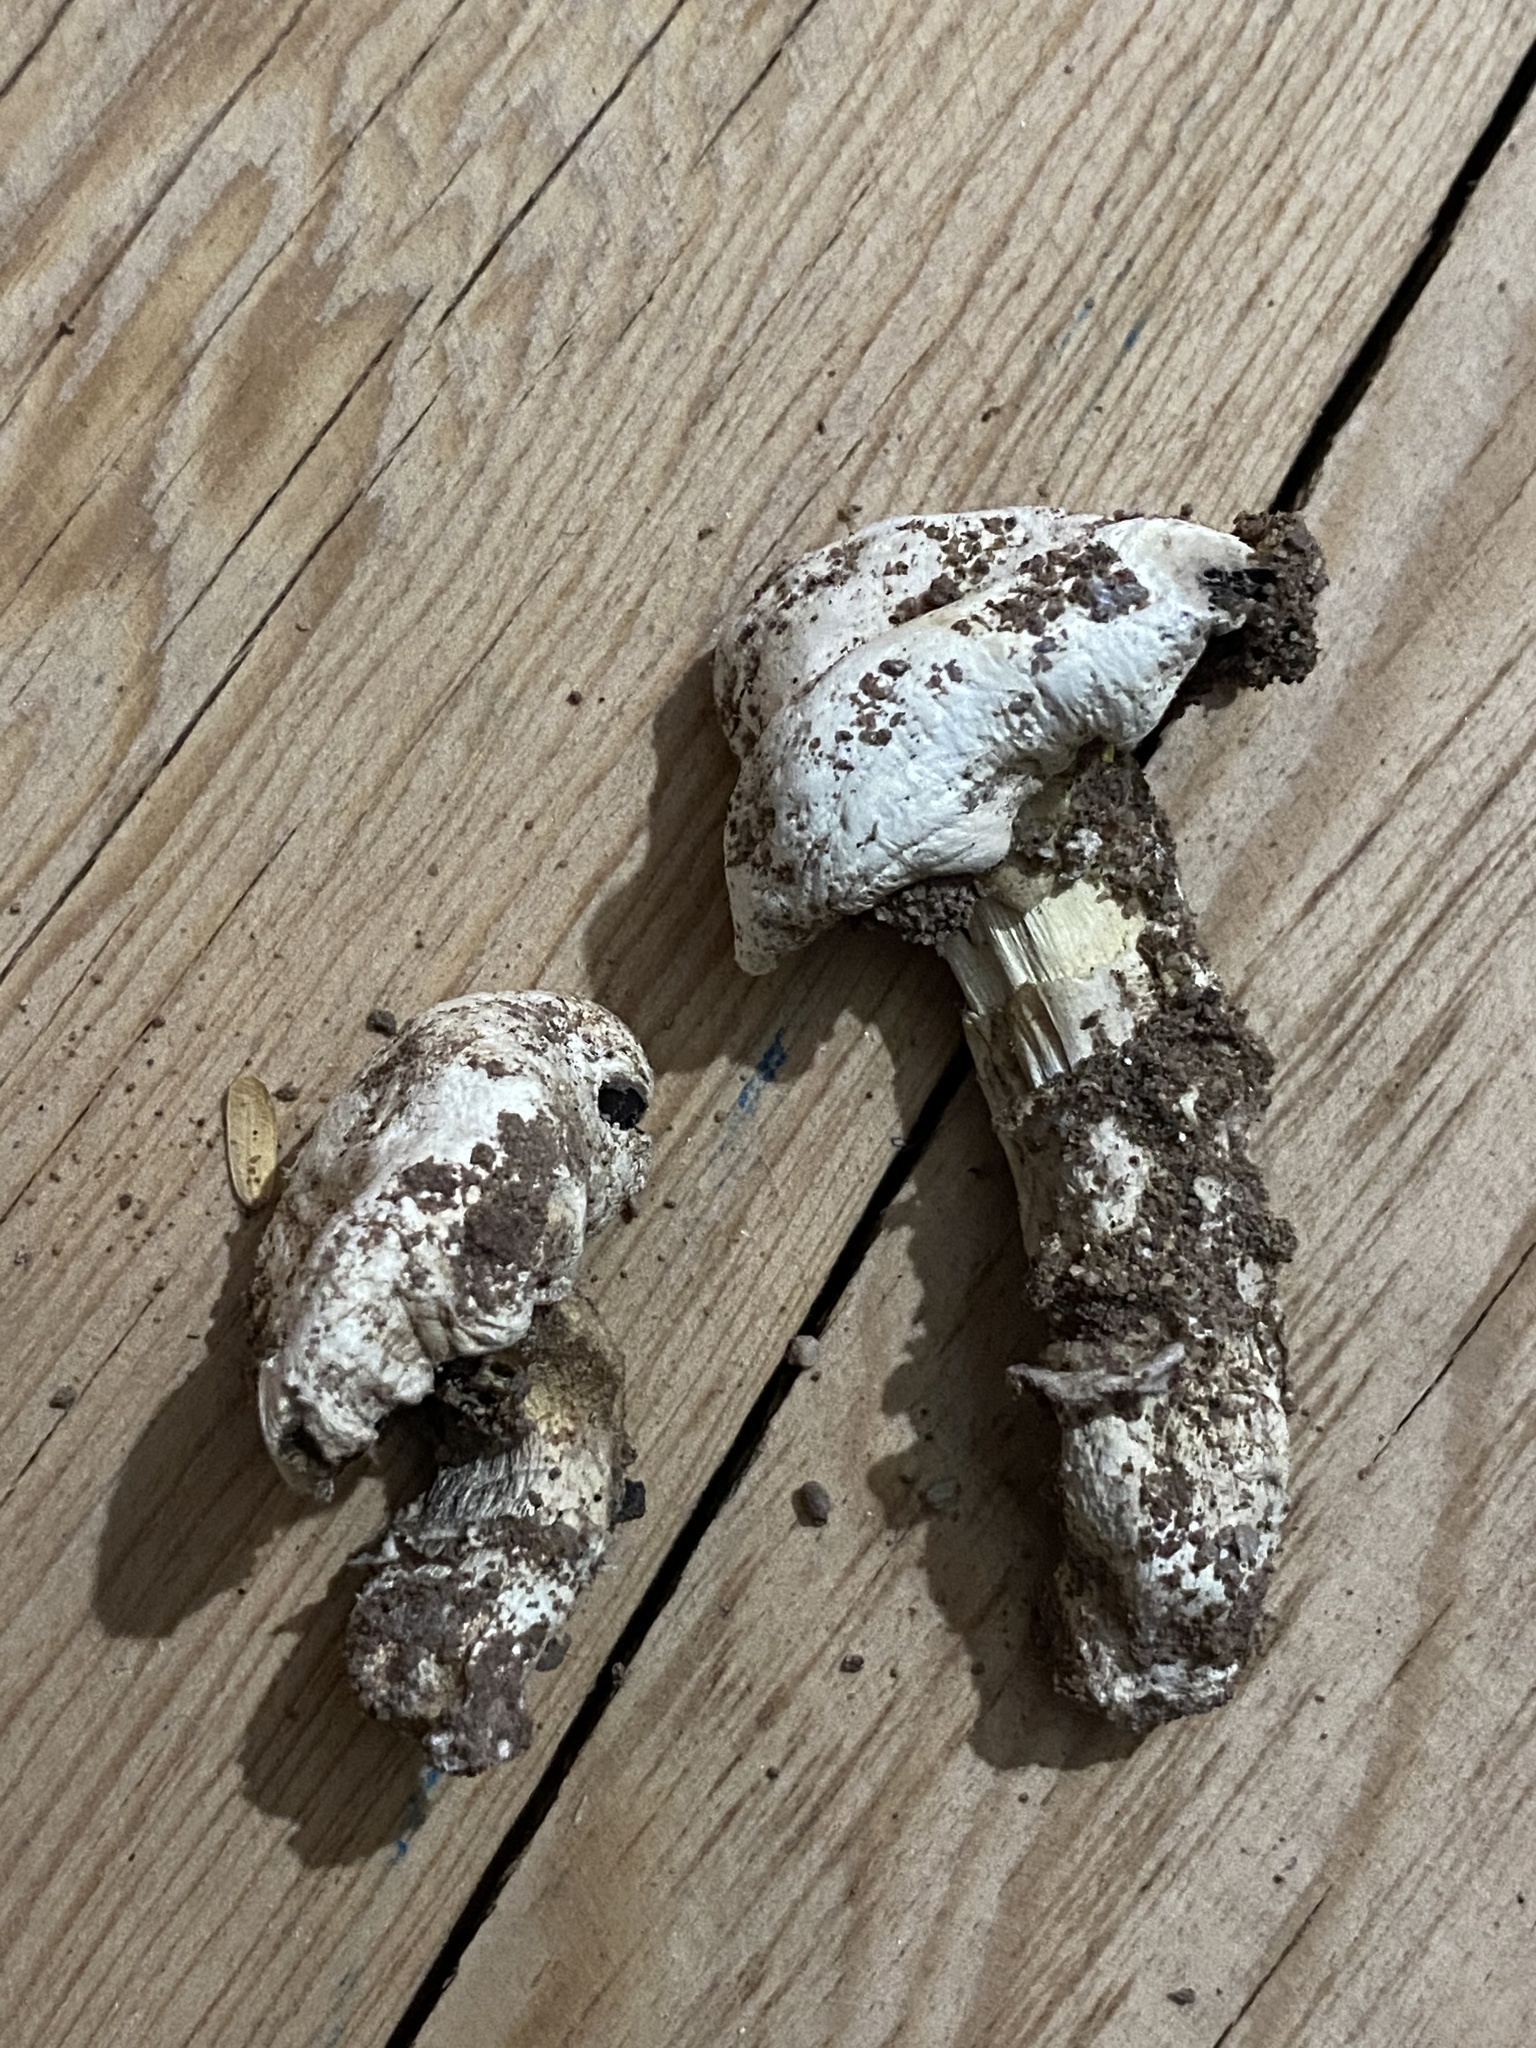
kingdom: Fungi
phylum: Basidiomycota
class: Agaricomycetes
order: Agaricales
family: Agaricaceae
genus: Agaricus
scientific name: Agaricus deserticola
